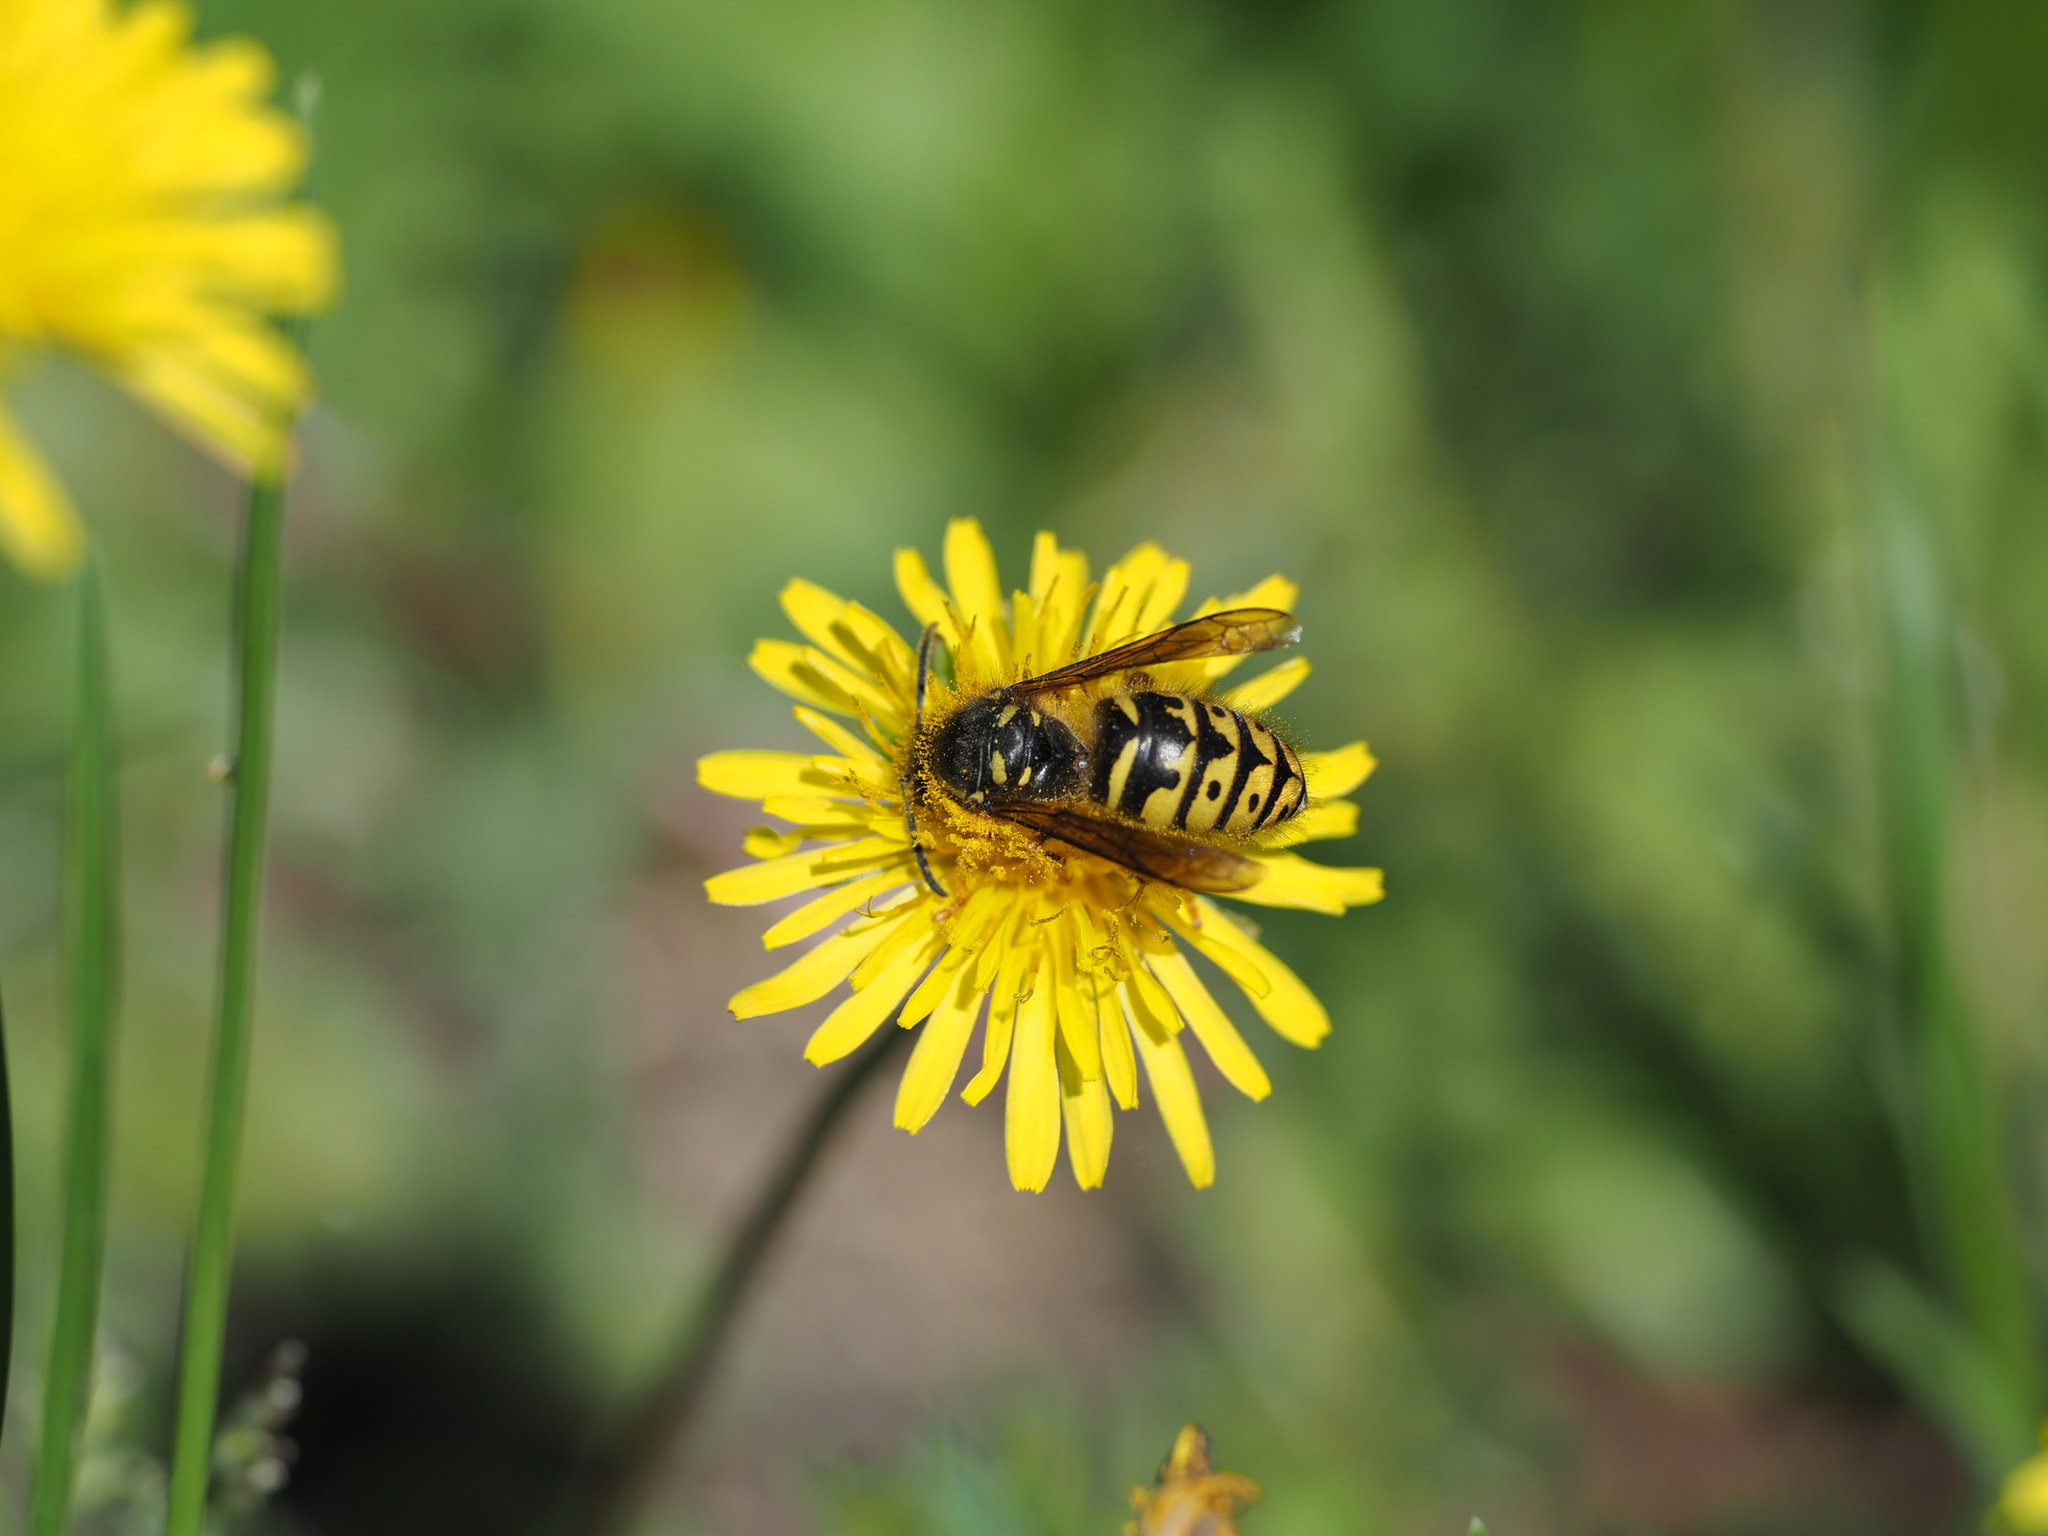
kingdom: Animalia
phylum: Arthropoda
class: Insecta
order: Hymenoptera
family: Vespidae
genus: Dolichovespula
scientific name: Dolichovespula arenaria
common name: Aerial yellowjacket
